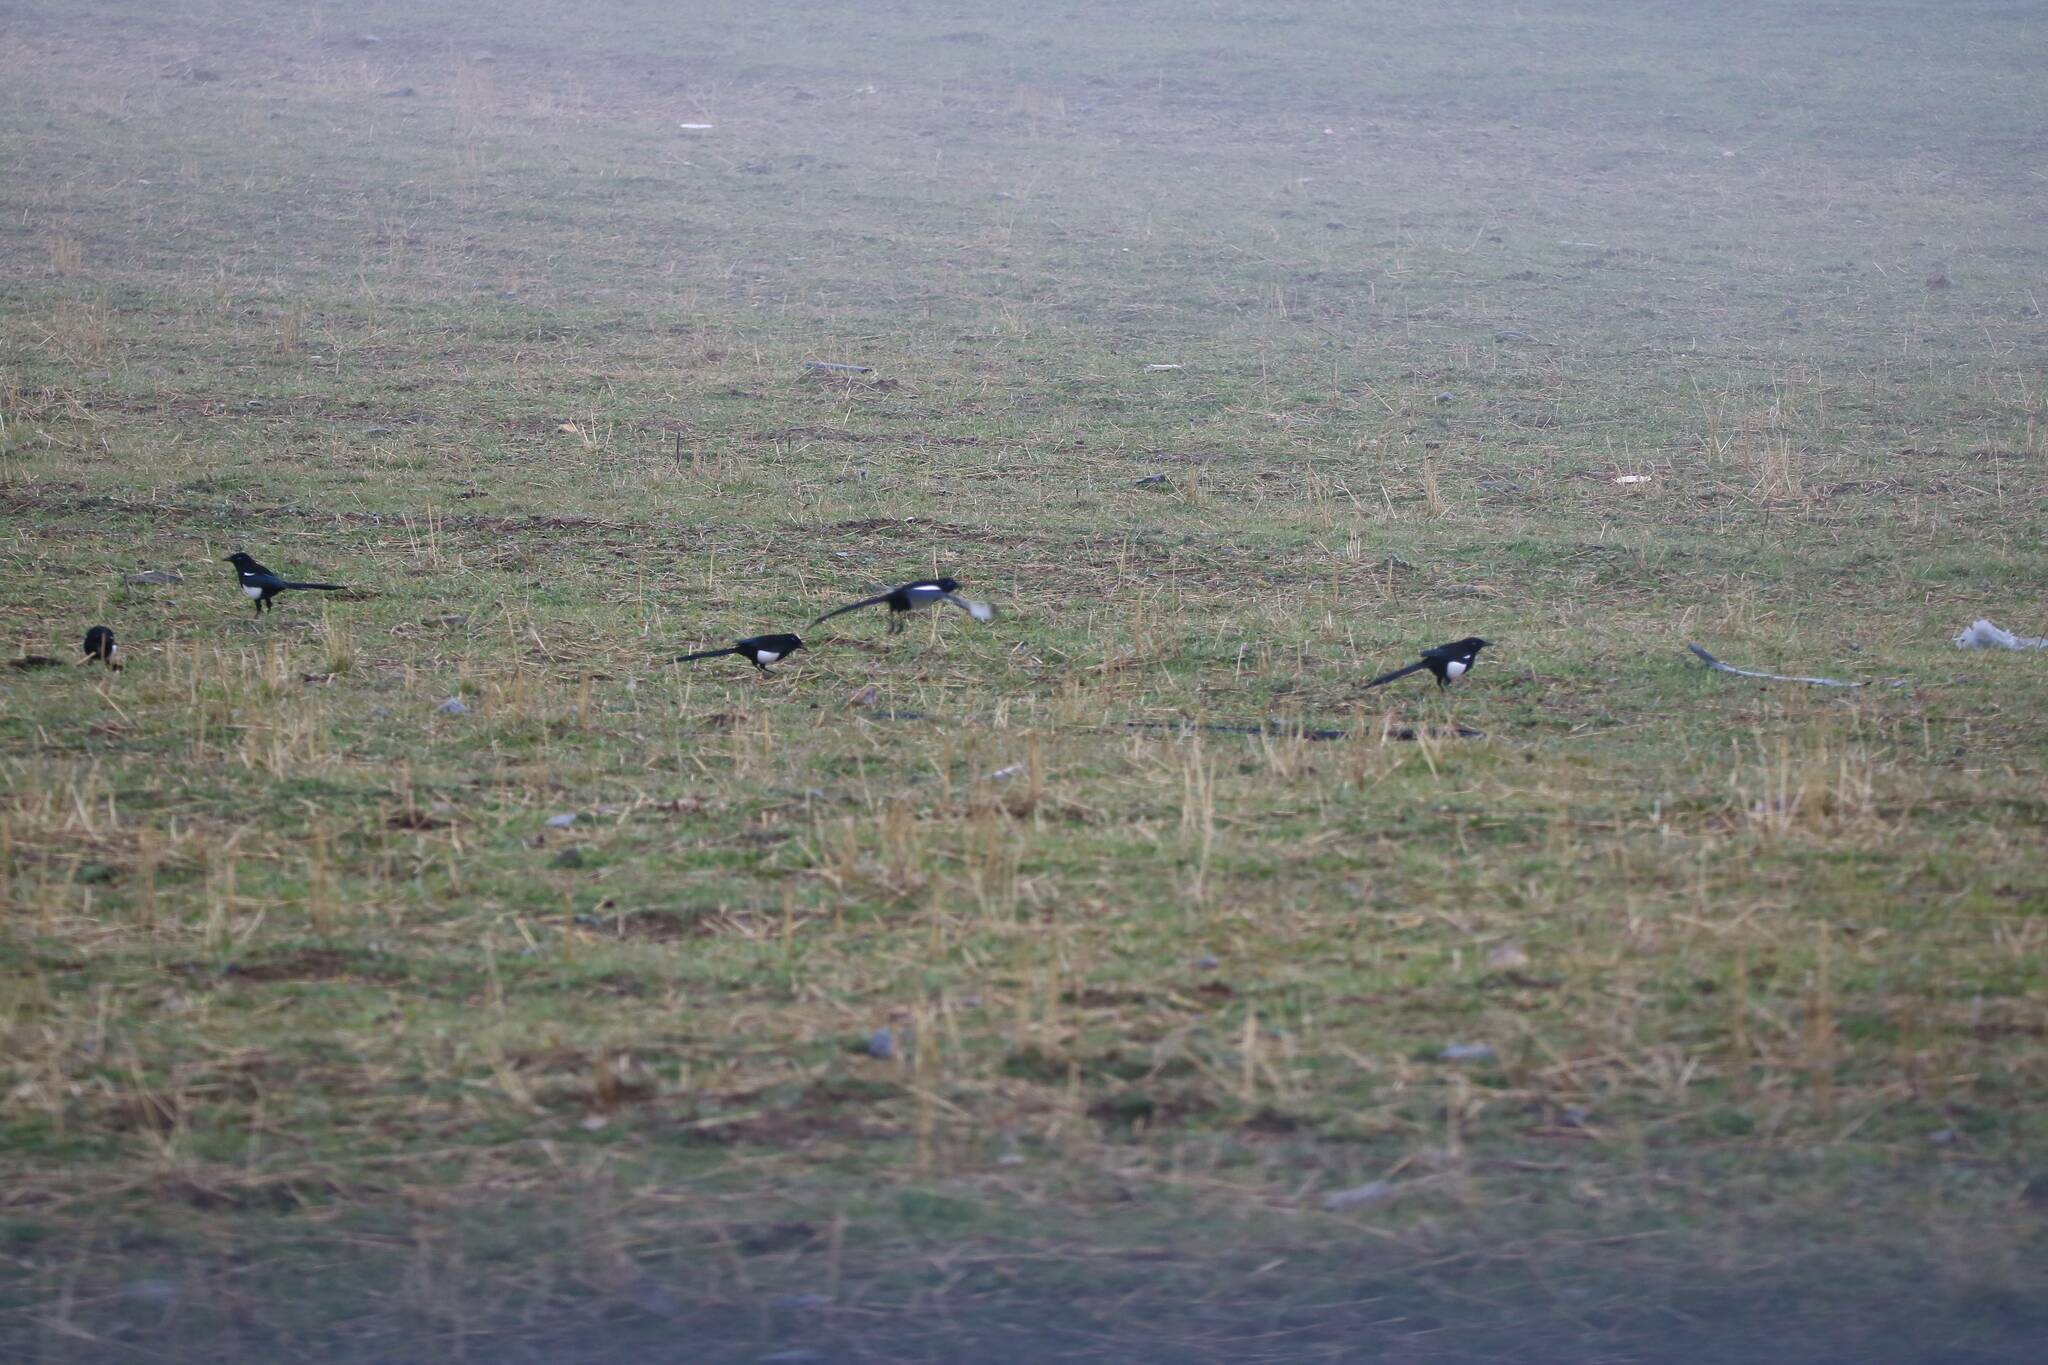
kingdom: Animalia
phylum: Chordata
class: Aves
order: Passeriformes
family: Corvidae
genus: Pica
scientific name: Pica mauritanica
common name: Maghreb magpie
